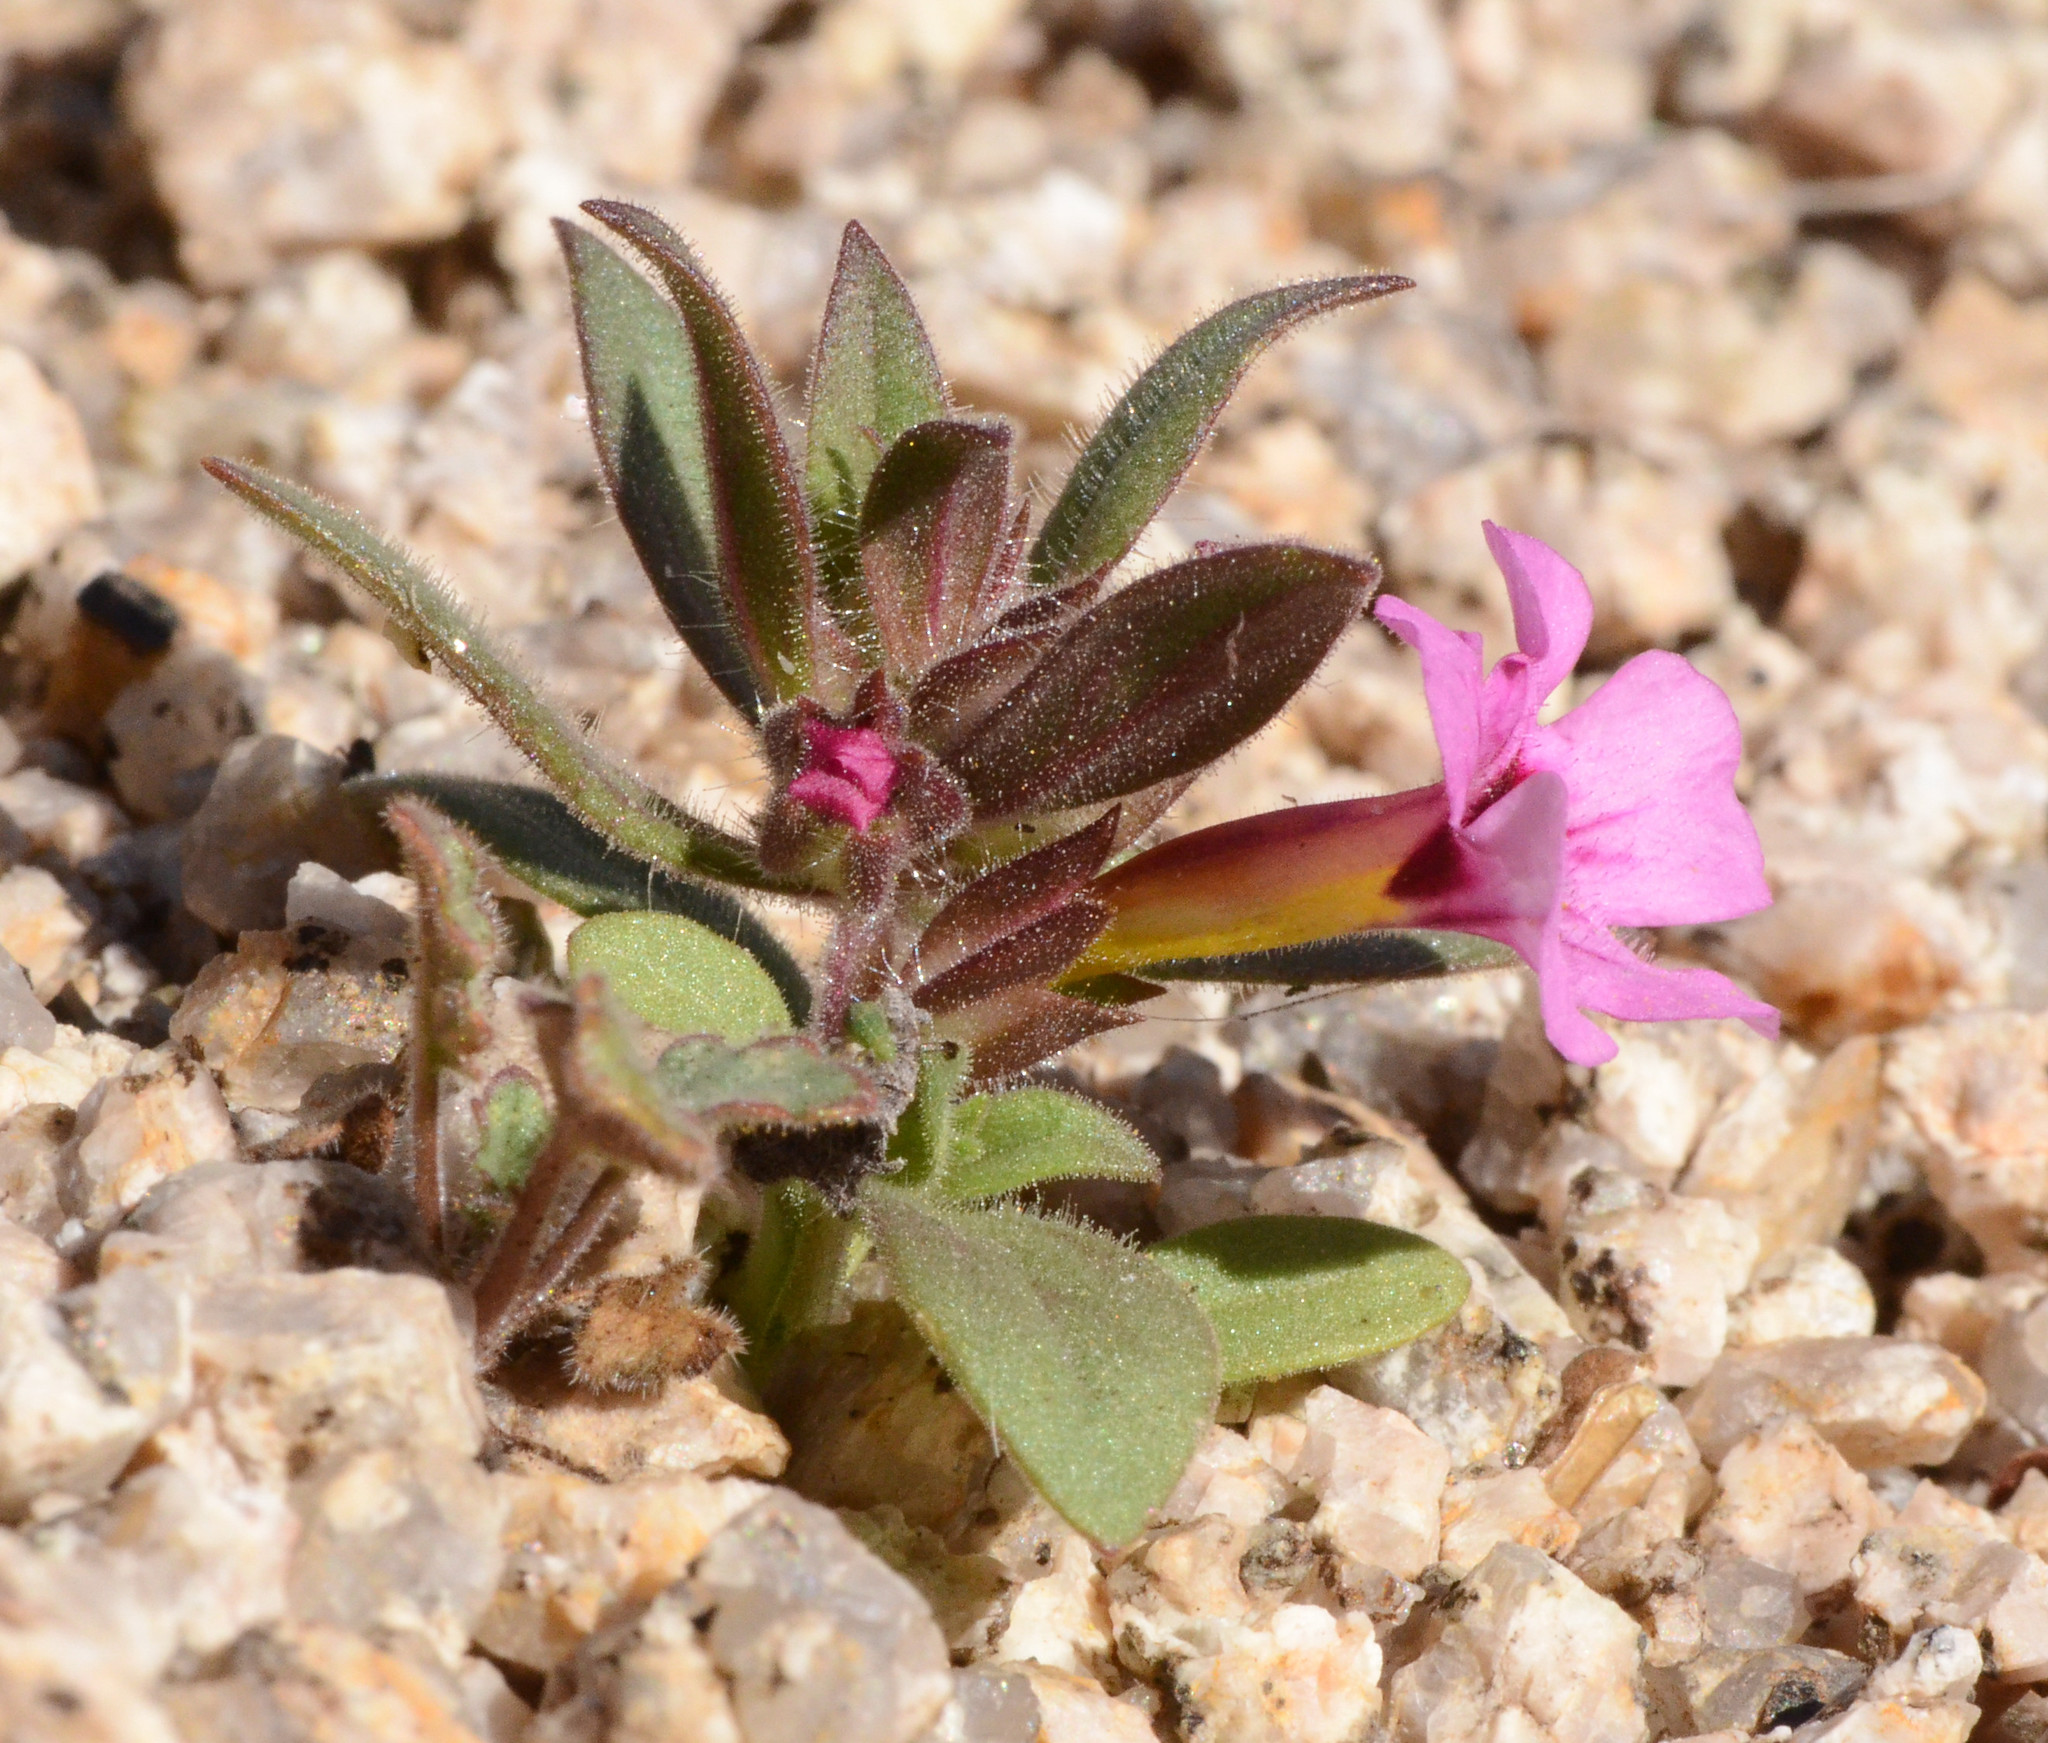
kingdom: Plantae
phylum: Tracheophyta
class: Magnoliopsida
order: Lamiales
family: Phrymaceae
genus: Diplacus
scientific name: Diplacus bigelovii
